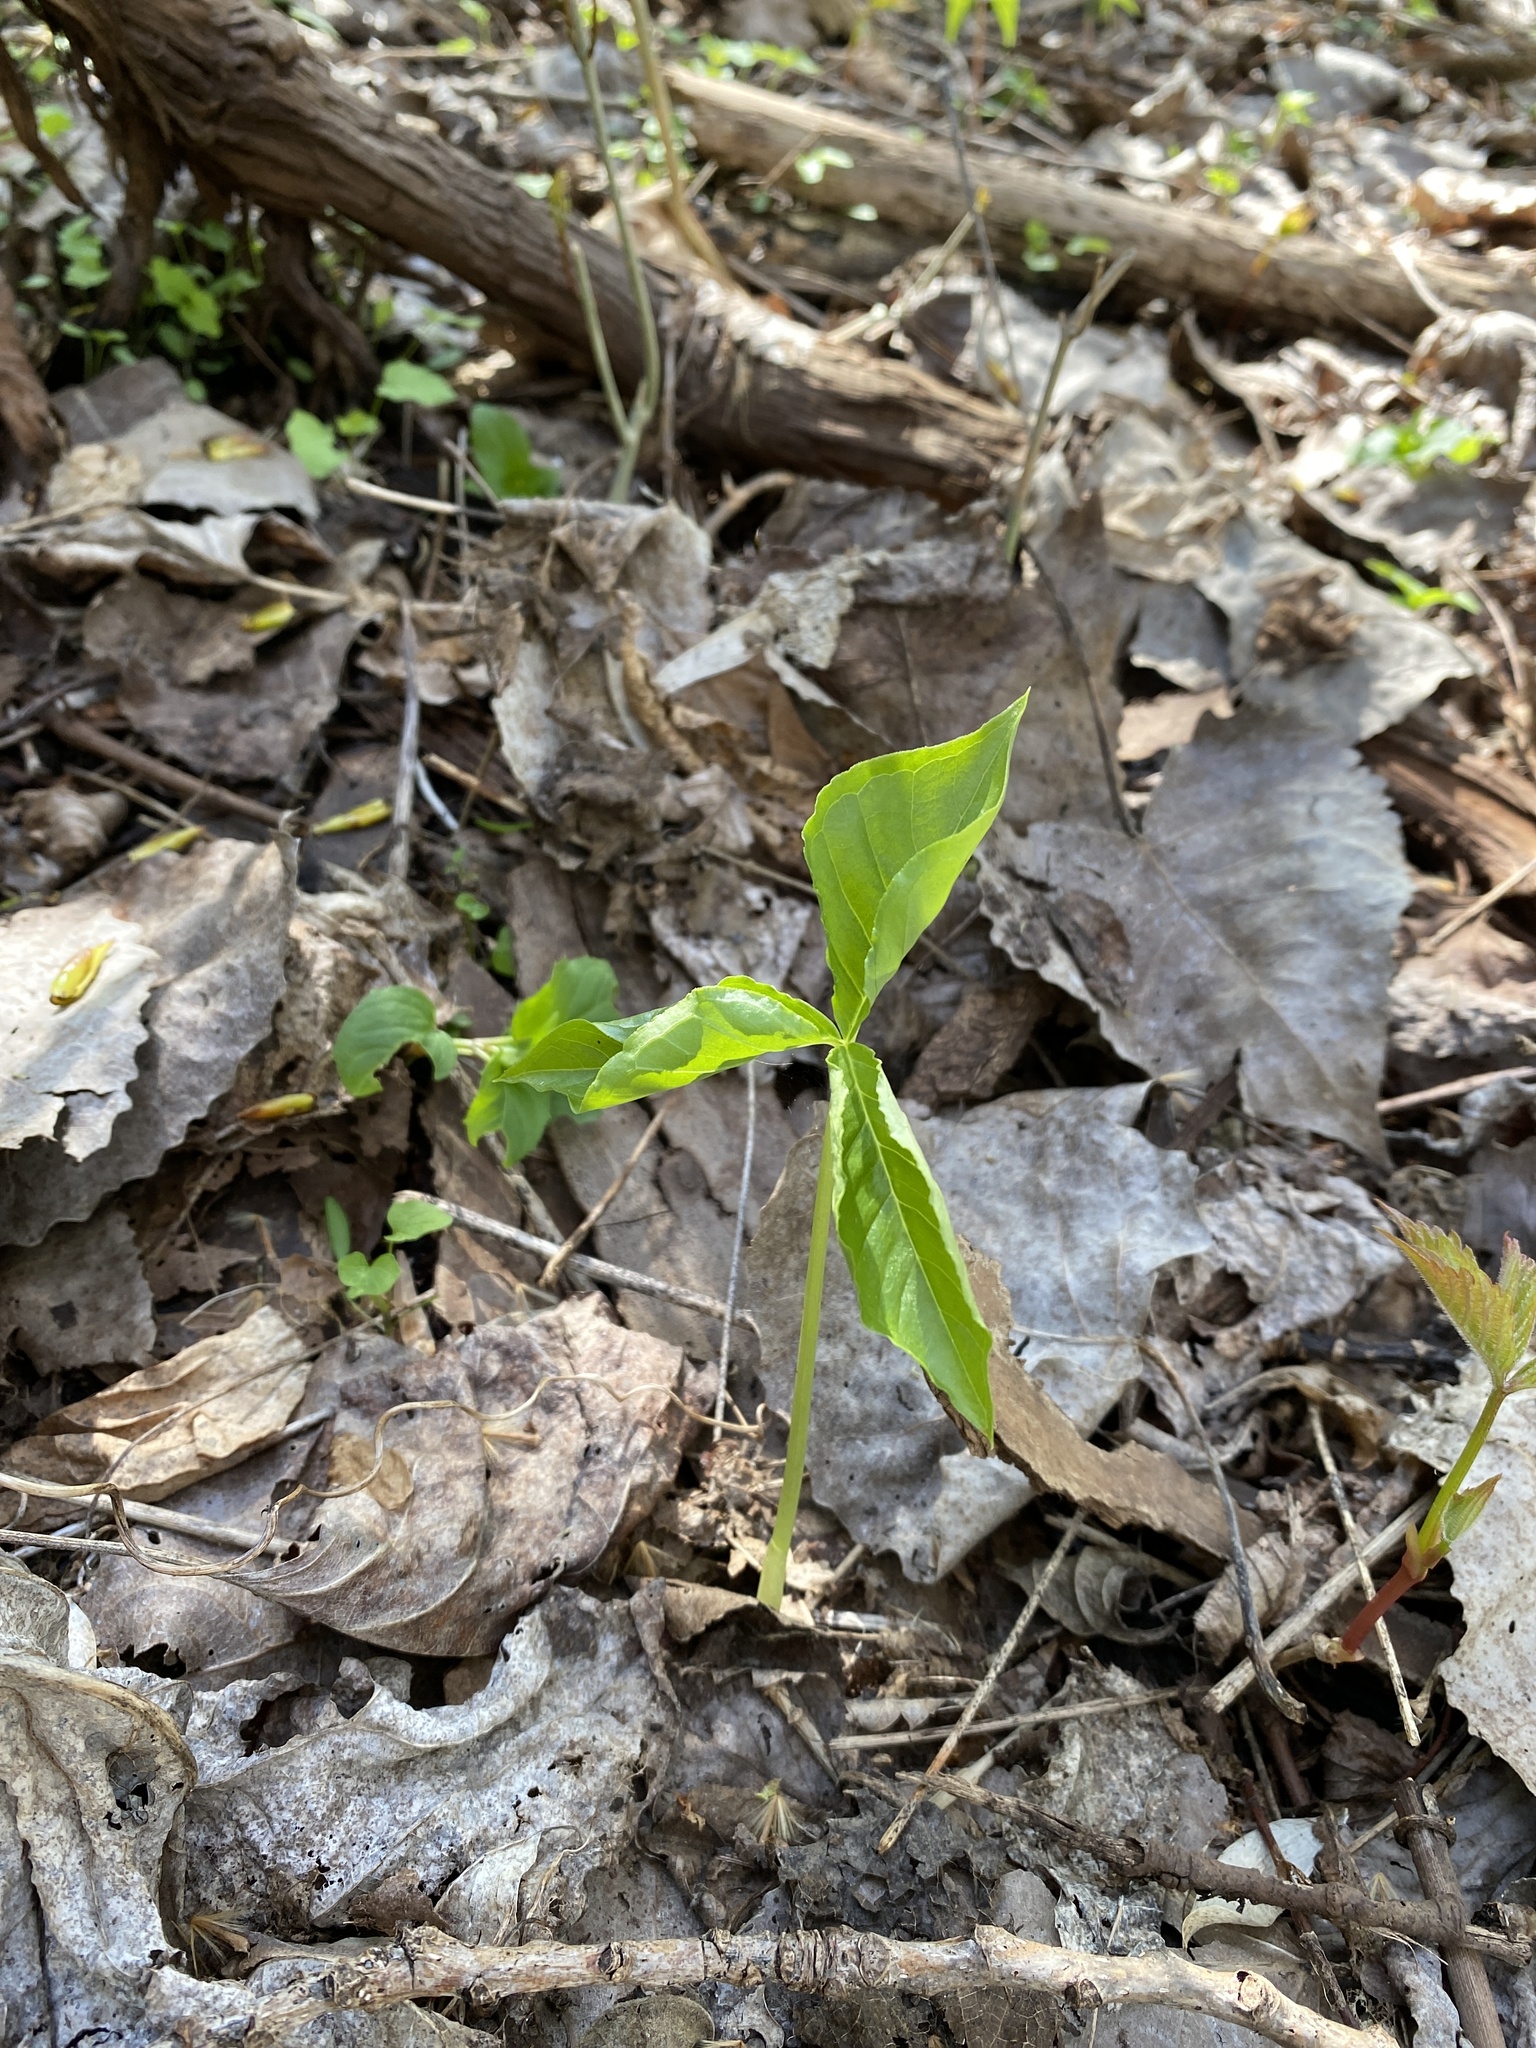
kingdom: Plantae
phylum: Tracheophyta
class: Liliopsida
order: Alismatales
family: Araceae
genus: Arisaema
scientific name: Arisaema triphyllum
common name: Jack-in-the-pulpit
